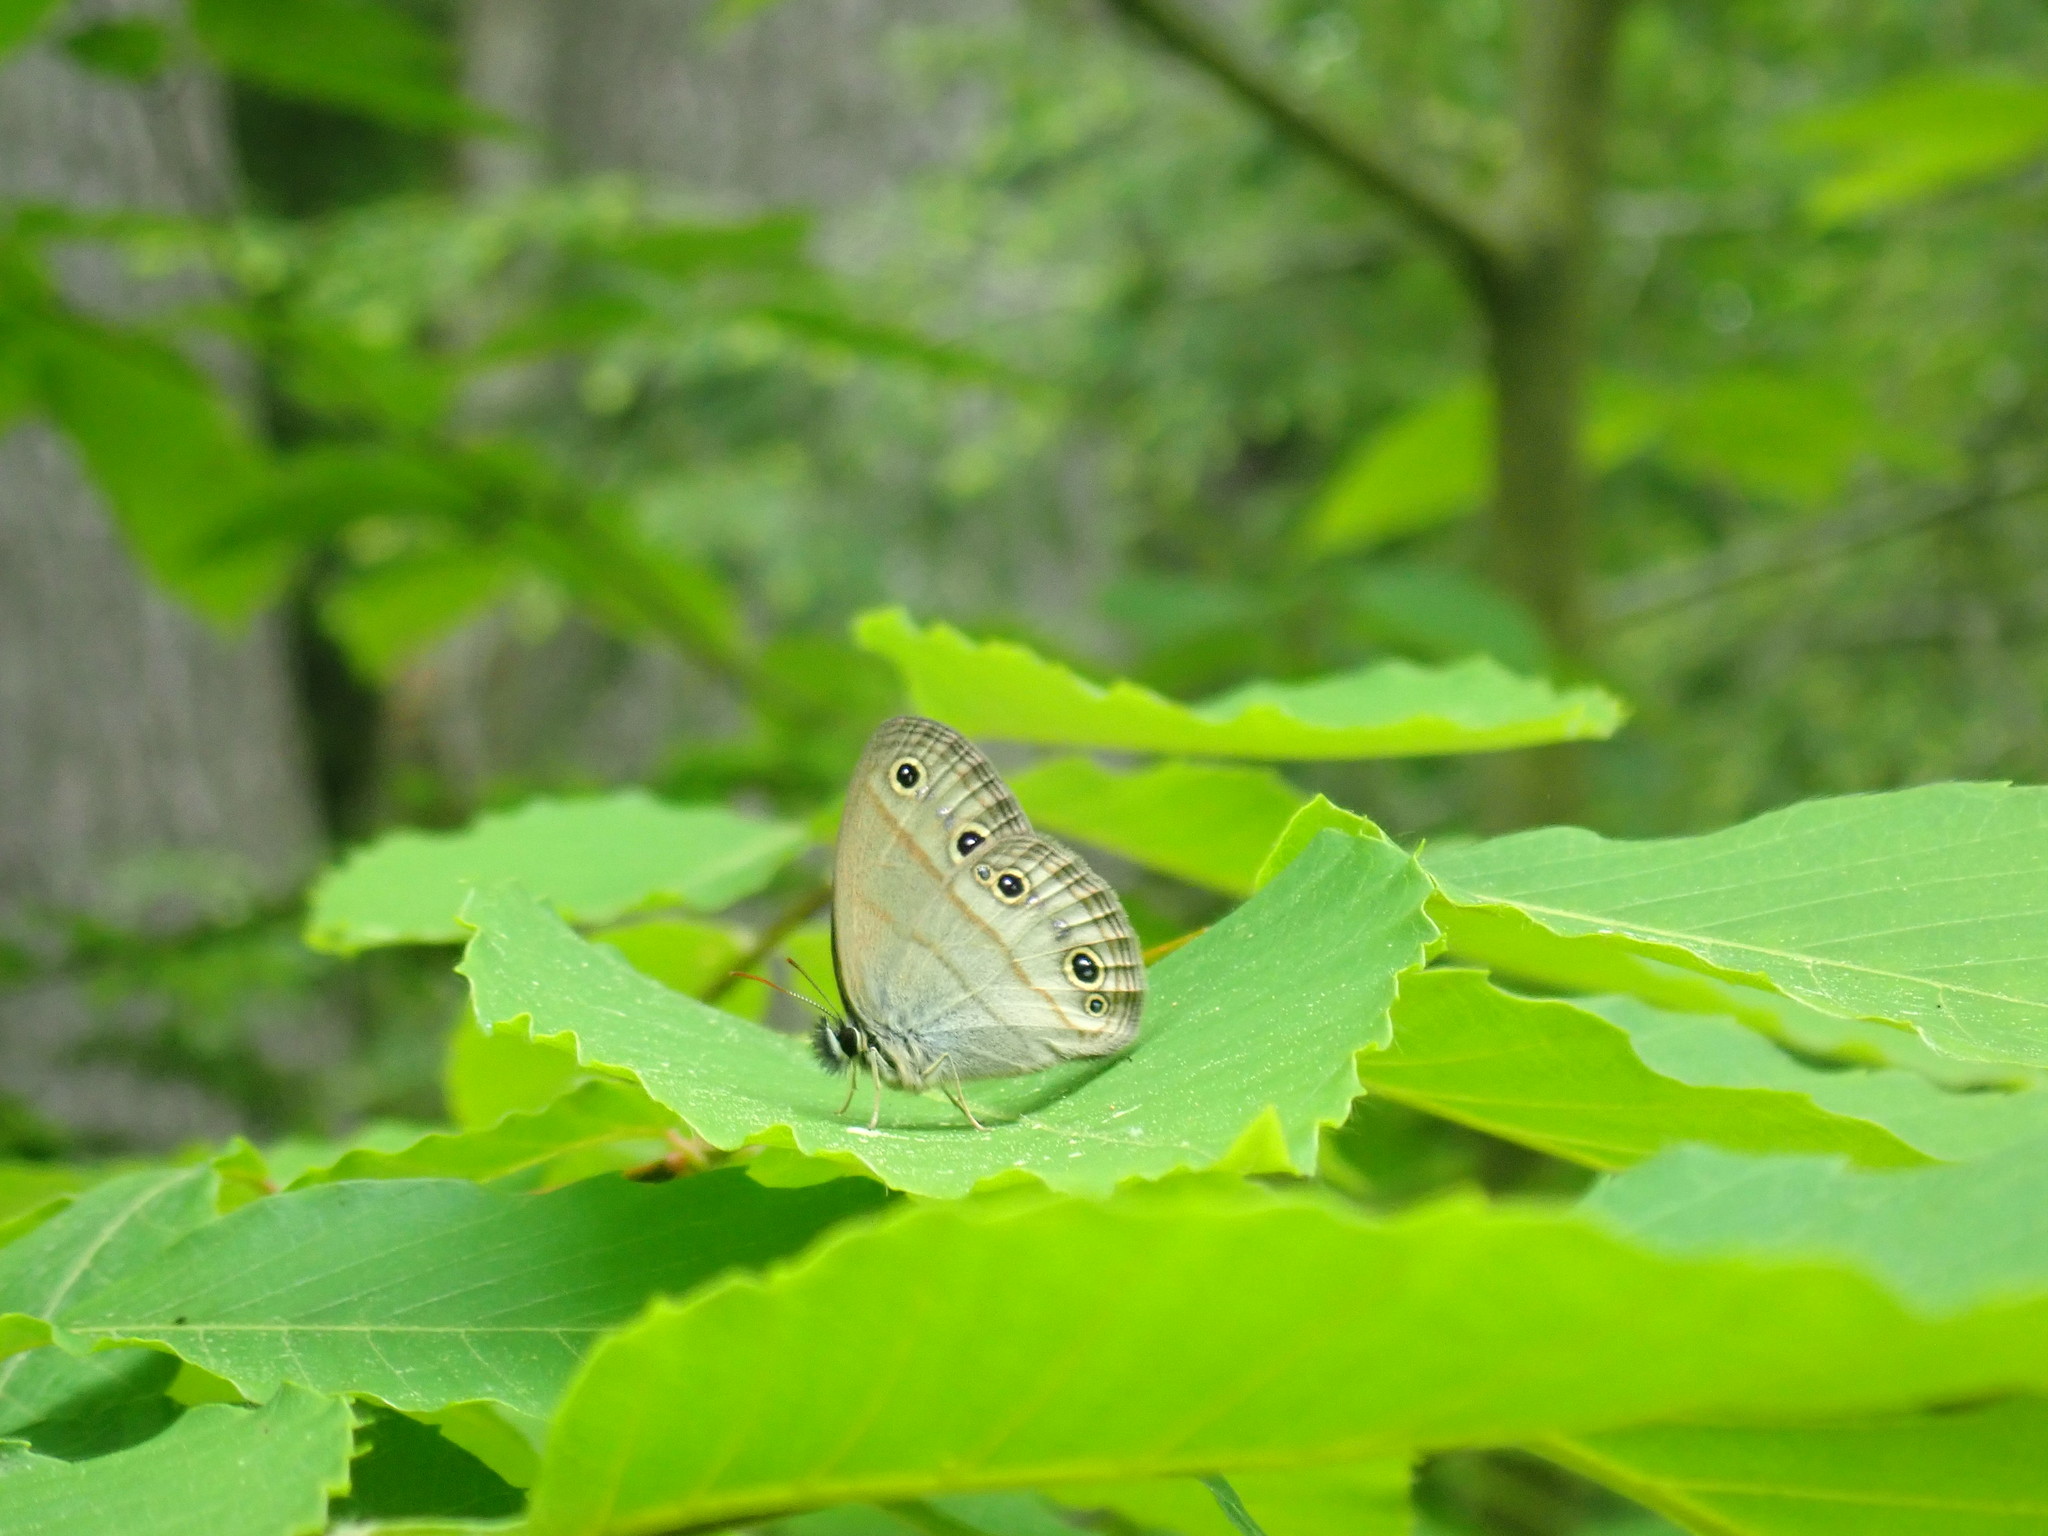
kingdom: Animalia
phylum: Arthropoda
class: Insecta
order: Lepidoptera
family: Nymphalidae
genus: Euptychia
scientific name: Euptychia cymela
